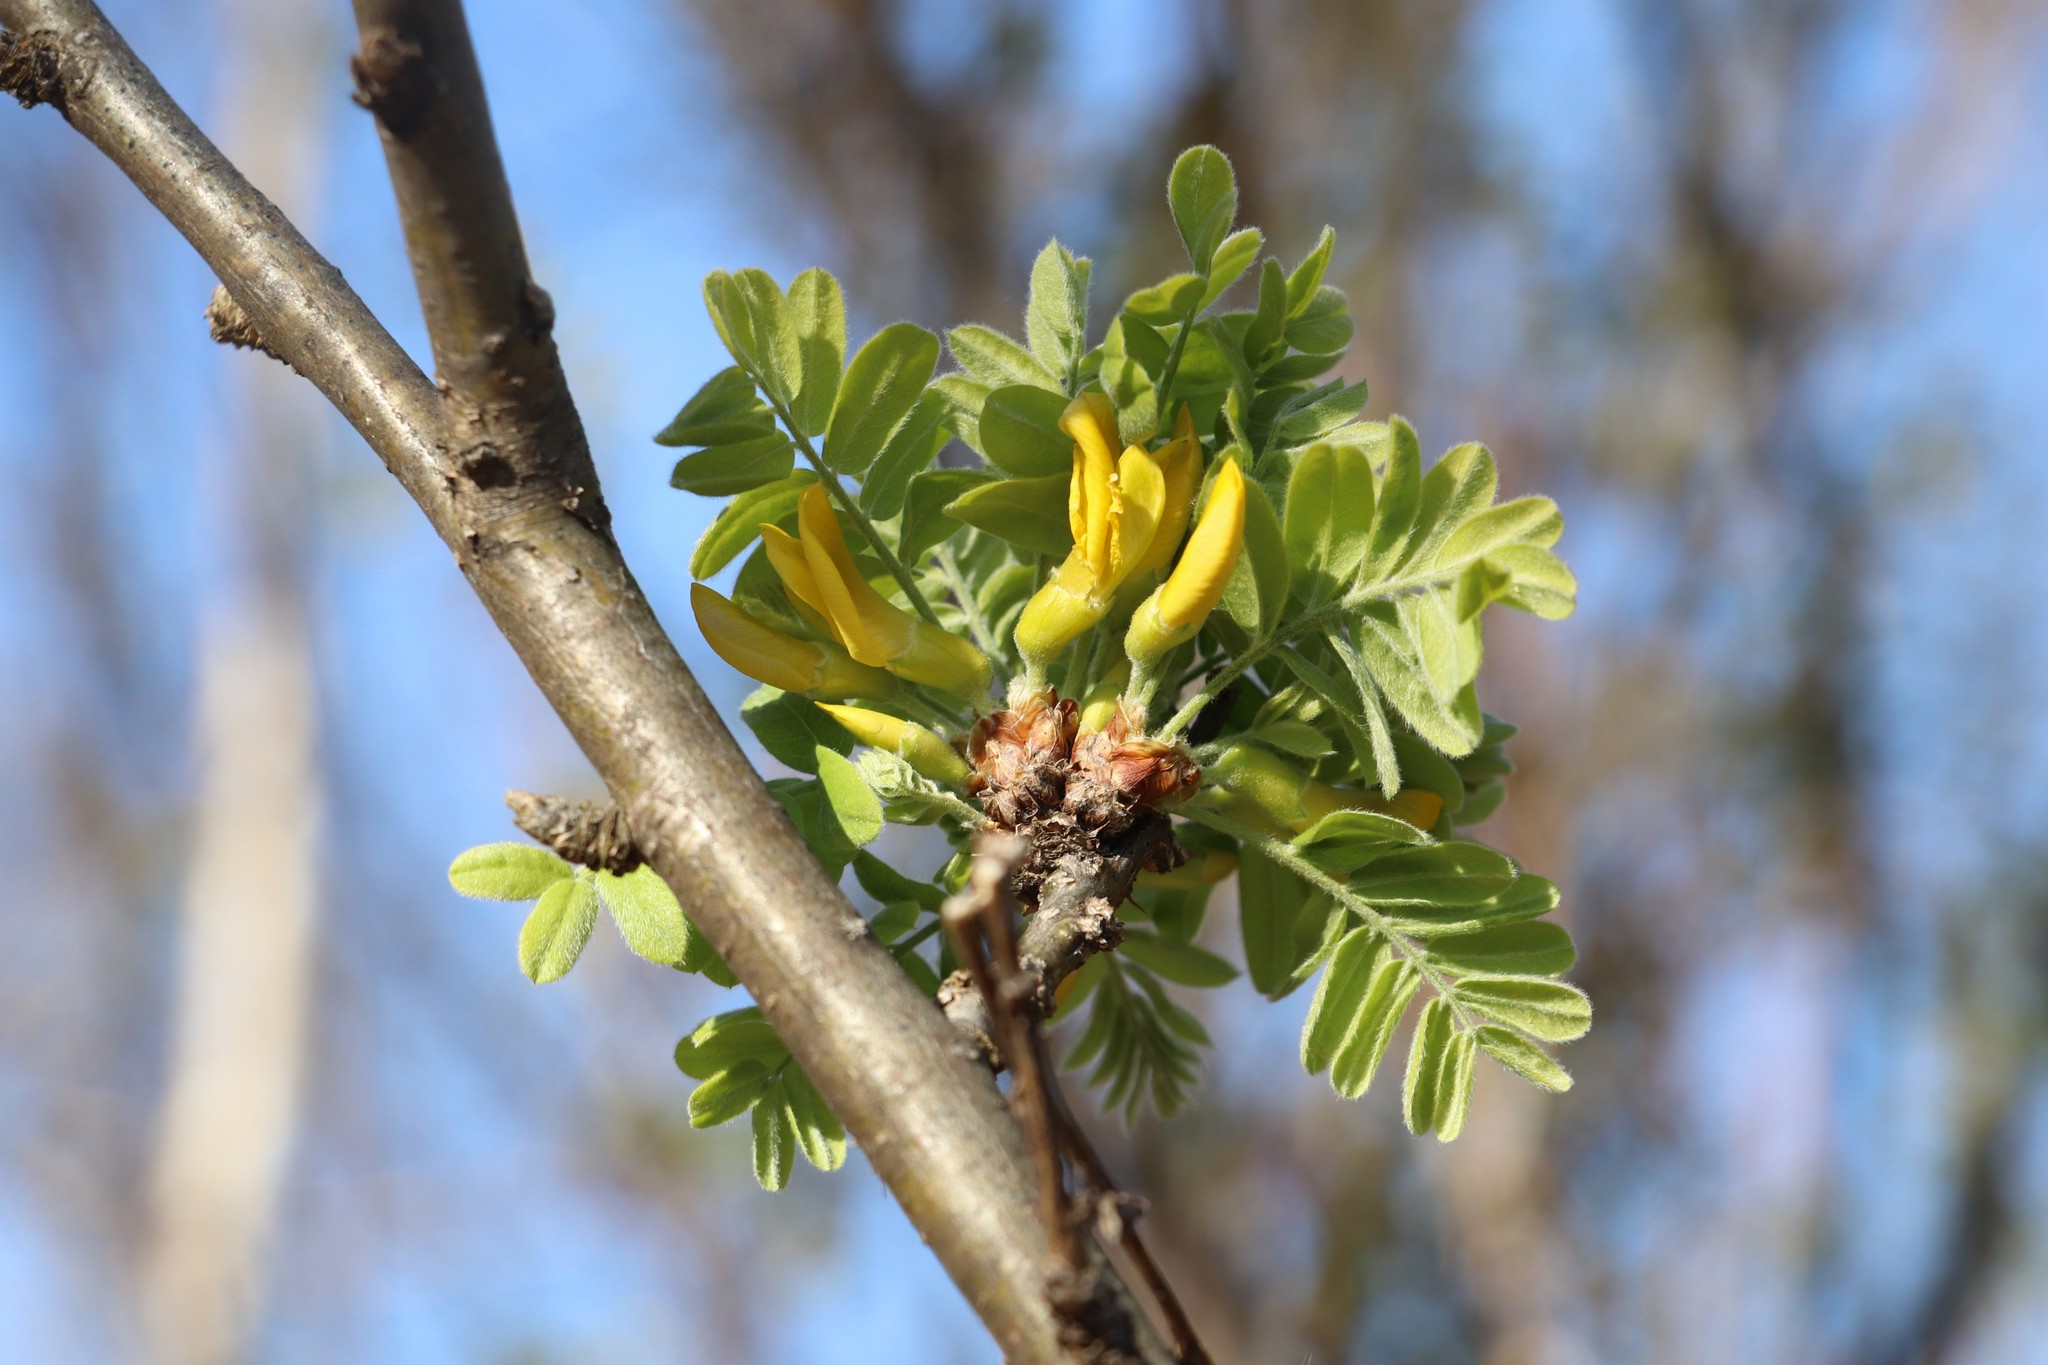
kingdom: Plantae
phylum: Tracheophyta
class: Magnoliopsida
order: Fabales
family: Fabaceae
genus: Caragana
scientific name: Caragana arborescens
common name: Siberian peashrub
